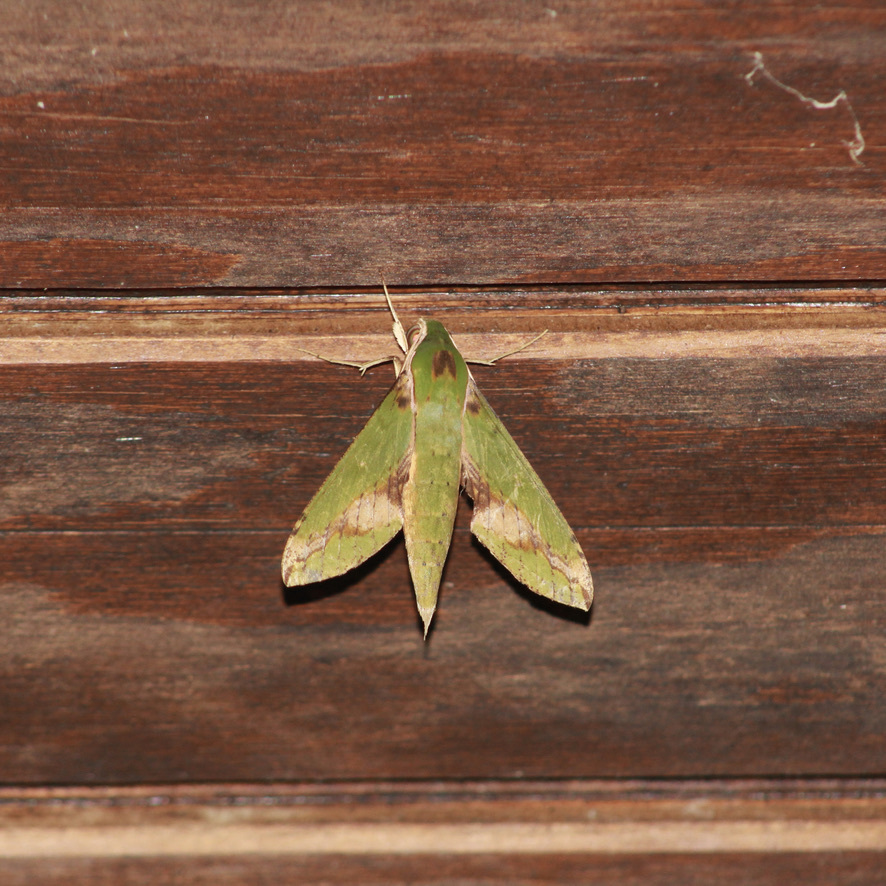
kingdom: Animalia
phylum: Arthropoda
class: Insecta
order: Lepidoptera
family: Sphingidae
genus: Xylophanes
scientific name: Xylophanes chiron
